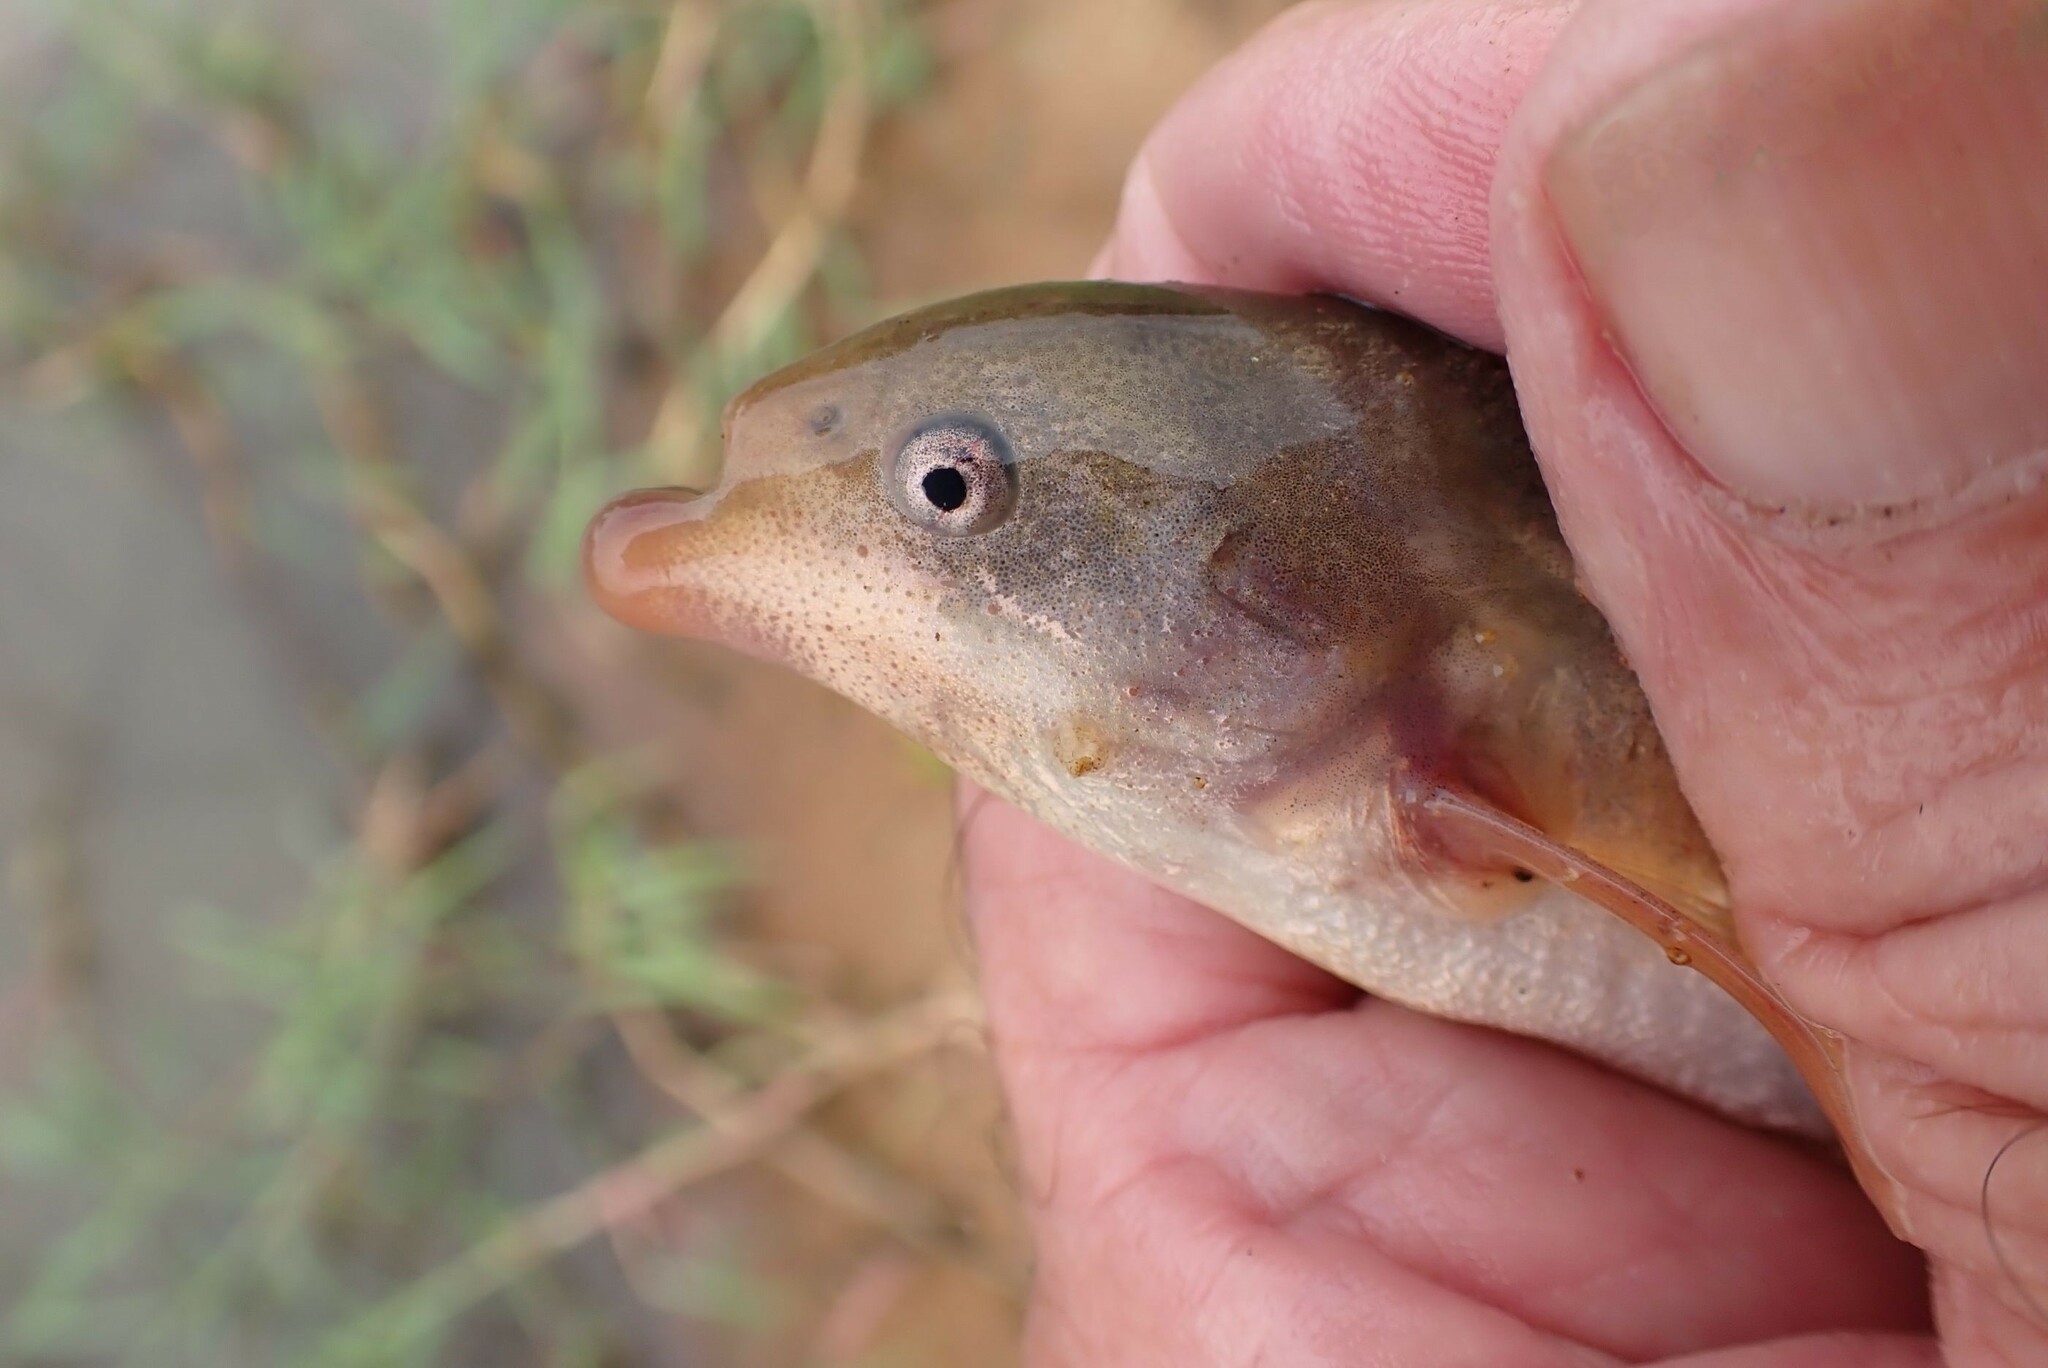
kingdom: Animalia
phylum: Chordata
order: Osteoglossiformes
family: Mormyridae
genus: Marcusenius
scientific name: Marcusenius pongolensis
